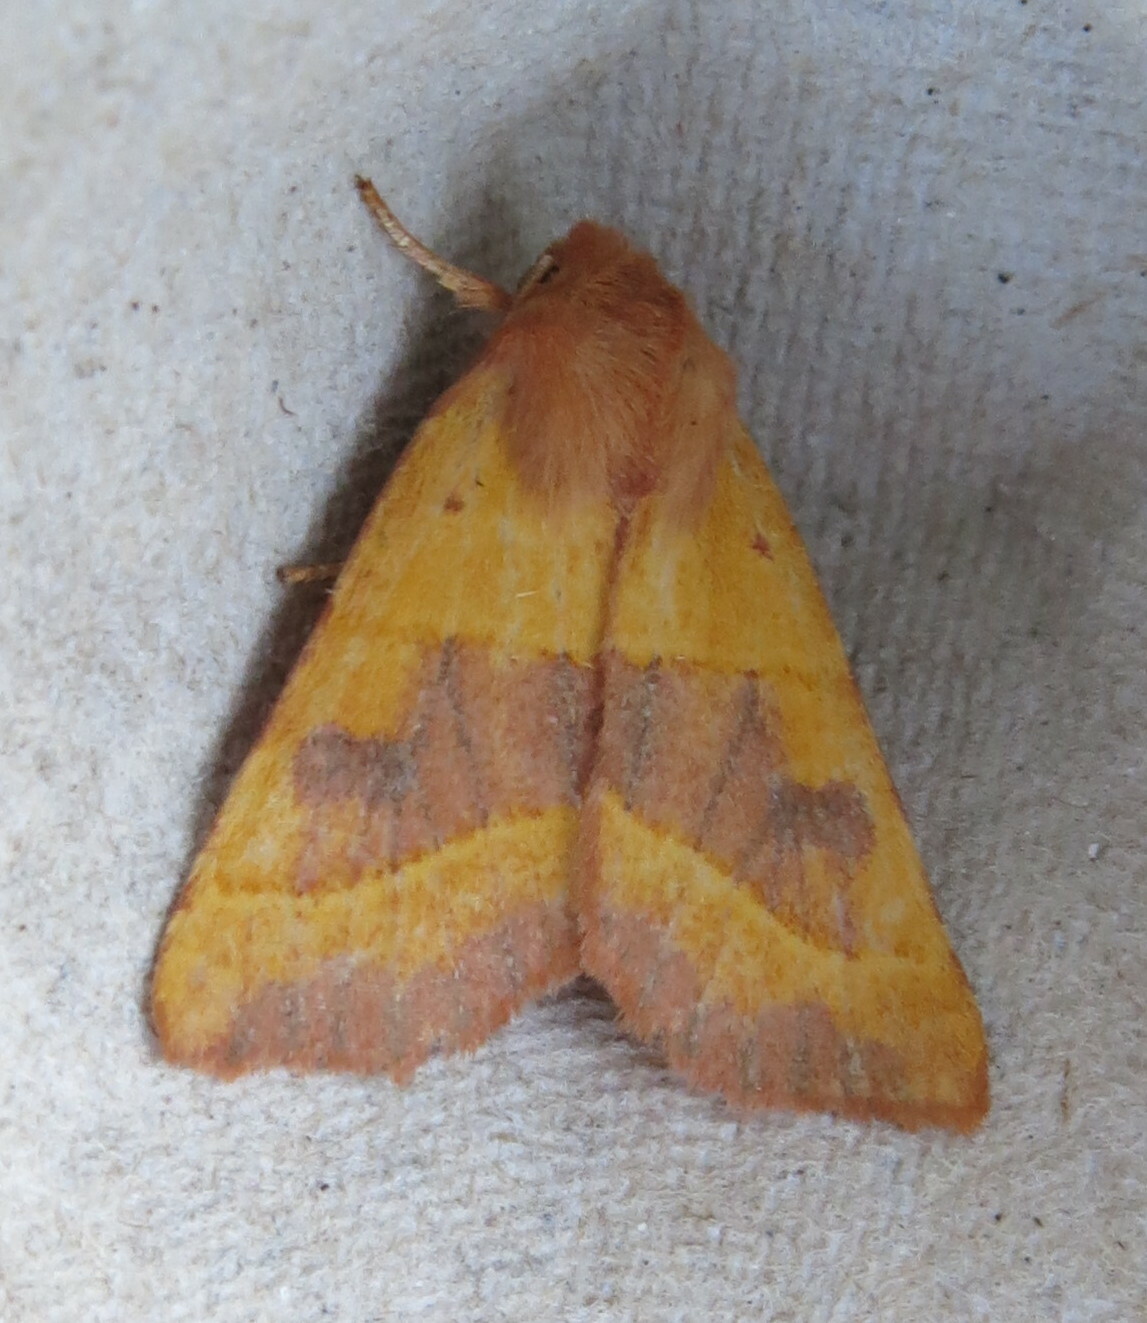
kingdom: Animalia
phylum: Arthropoda
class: Insecta
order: Lepidoptera
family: Noctuidae
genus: Atethmia
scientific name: Atethmia centrago
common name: Centre-barred sallow
